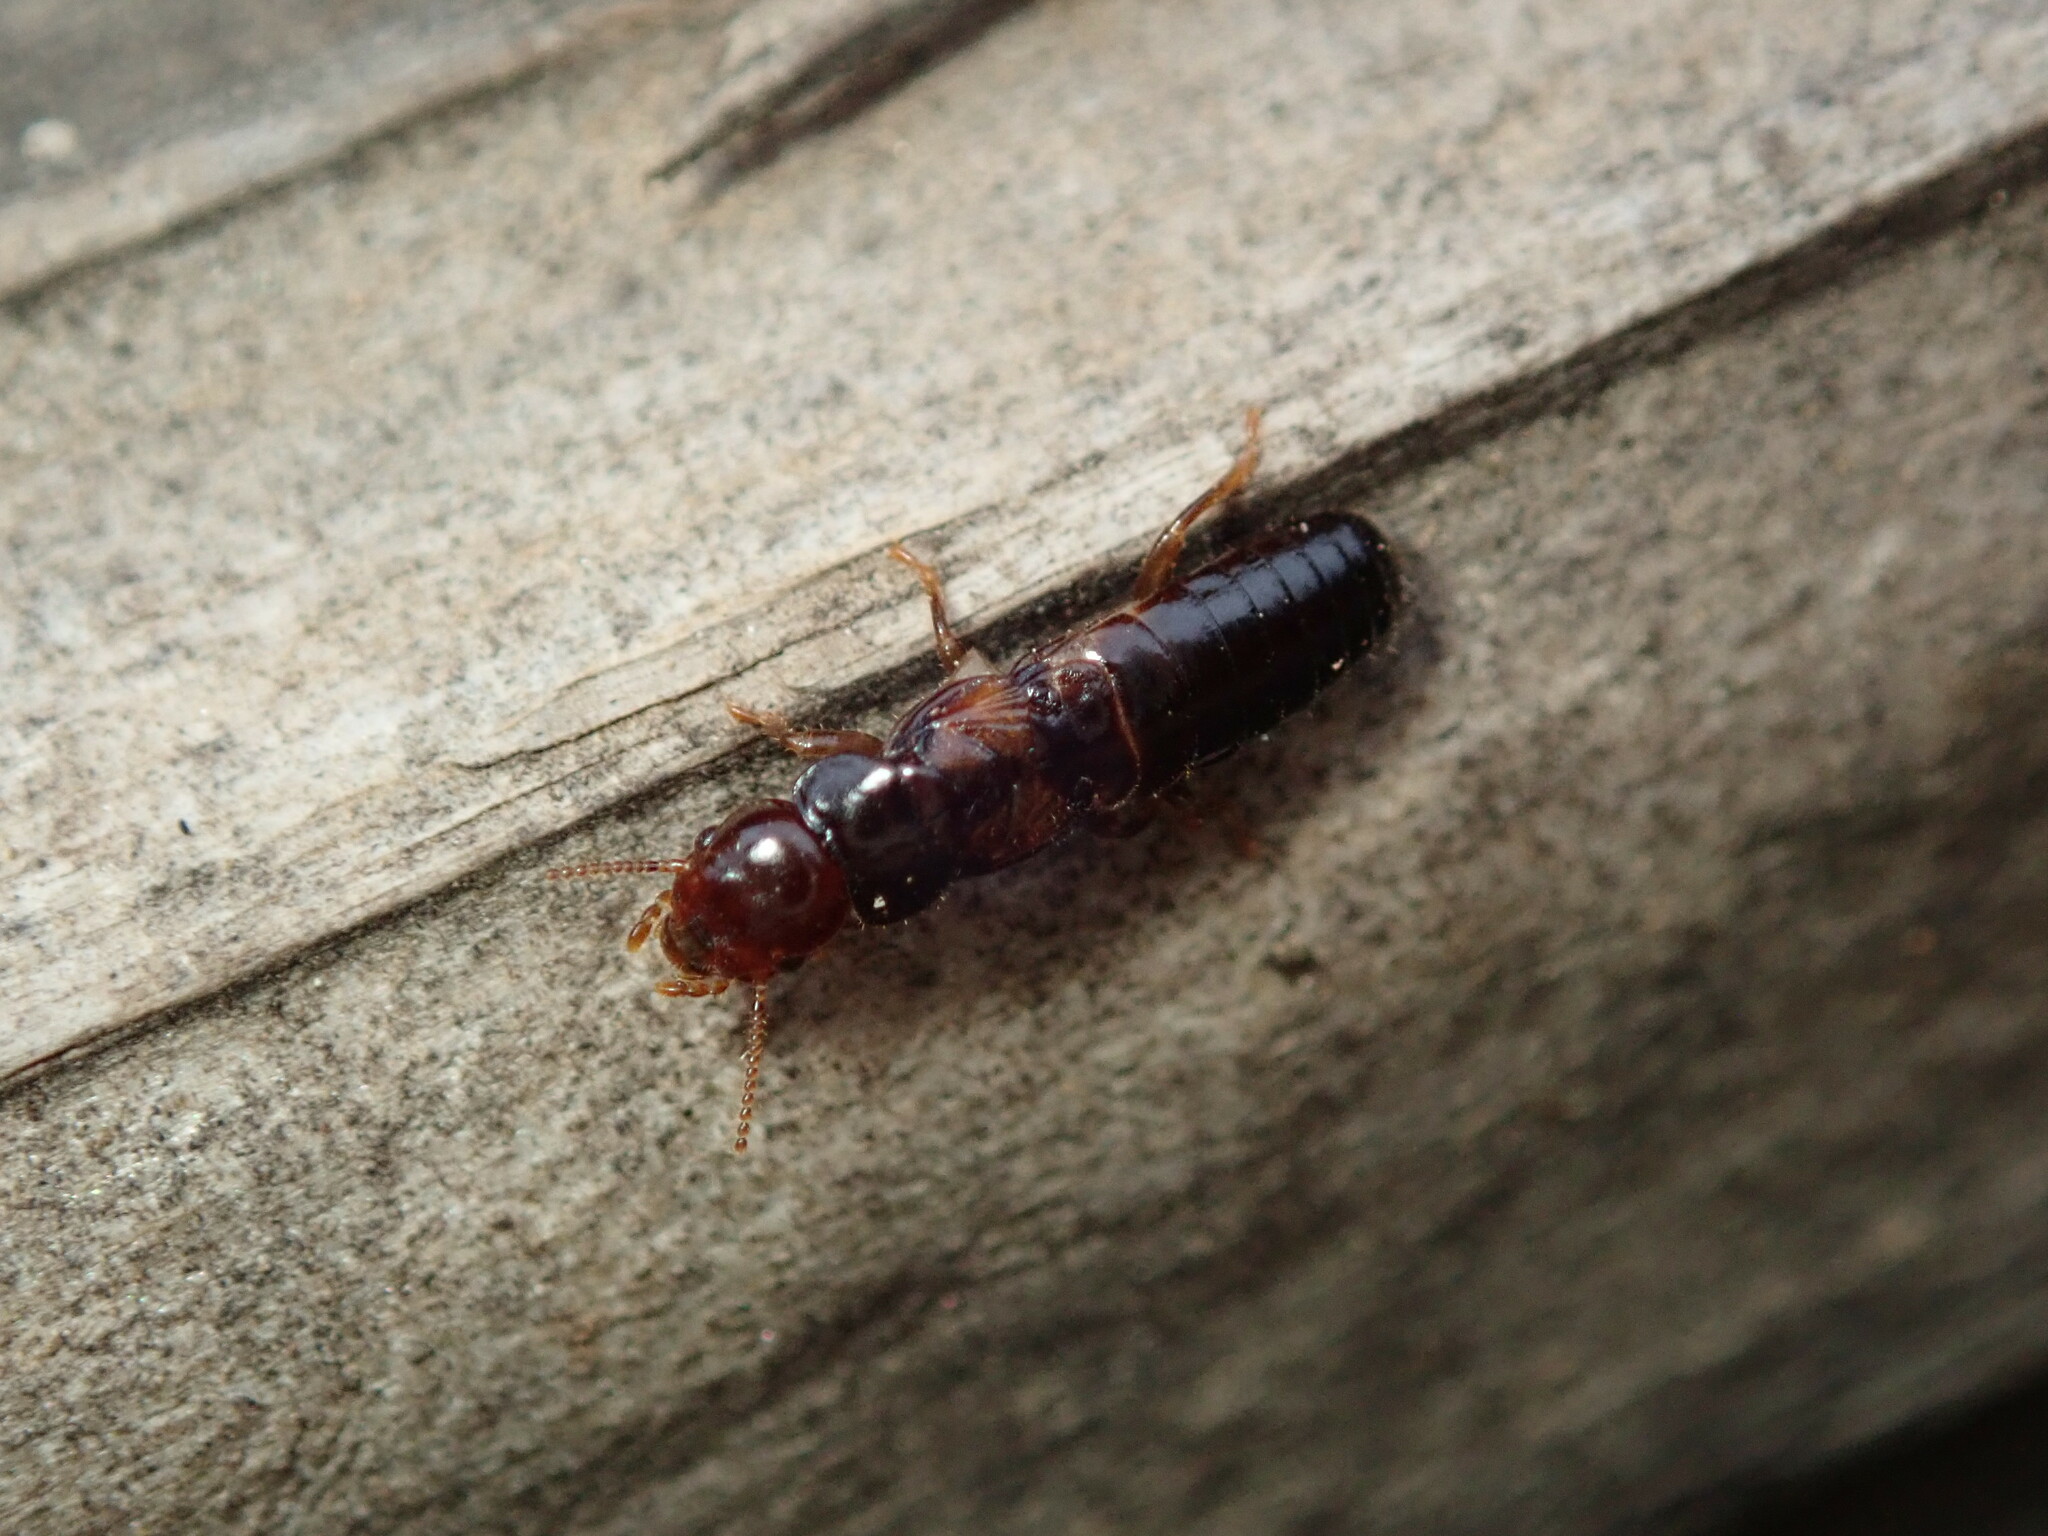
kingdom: Animalia
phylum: Arthropoda
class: Insecta
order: Blattodea
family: Kalotermitidae
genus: Incisitermes
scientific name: Incisitermes minor
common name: Termite
